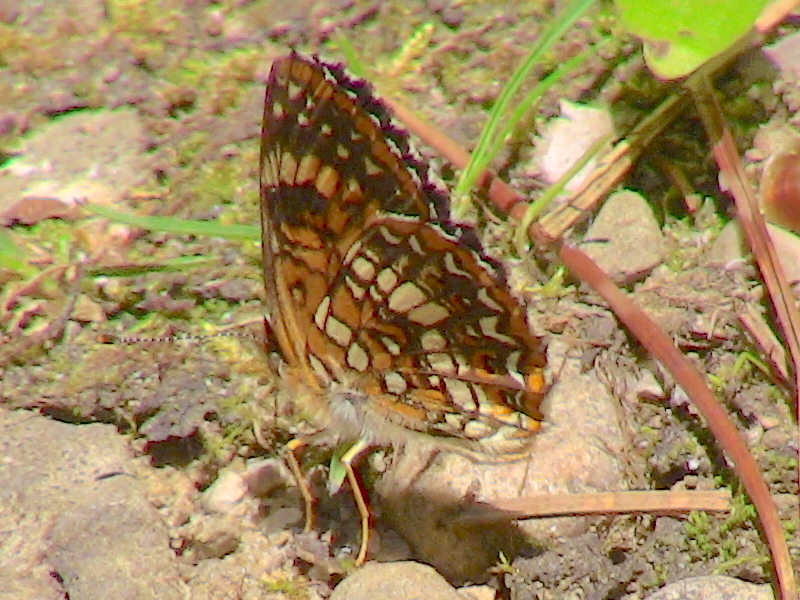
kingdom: Animalia
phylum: Arthropoda
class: Insecta
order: Lepidoptera
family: Nymphalidae
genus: Chlosyne
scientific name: Chlosyne harrisii
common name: Harris's checkerspot
